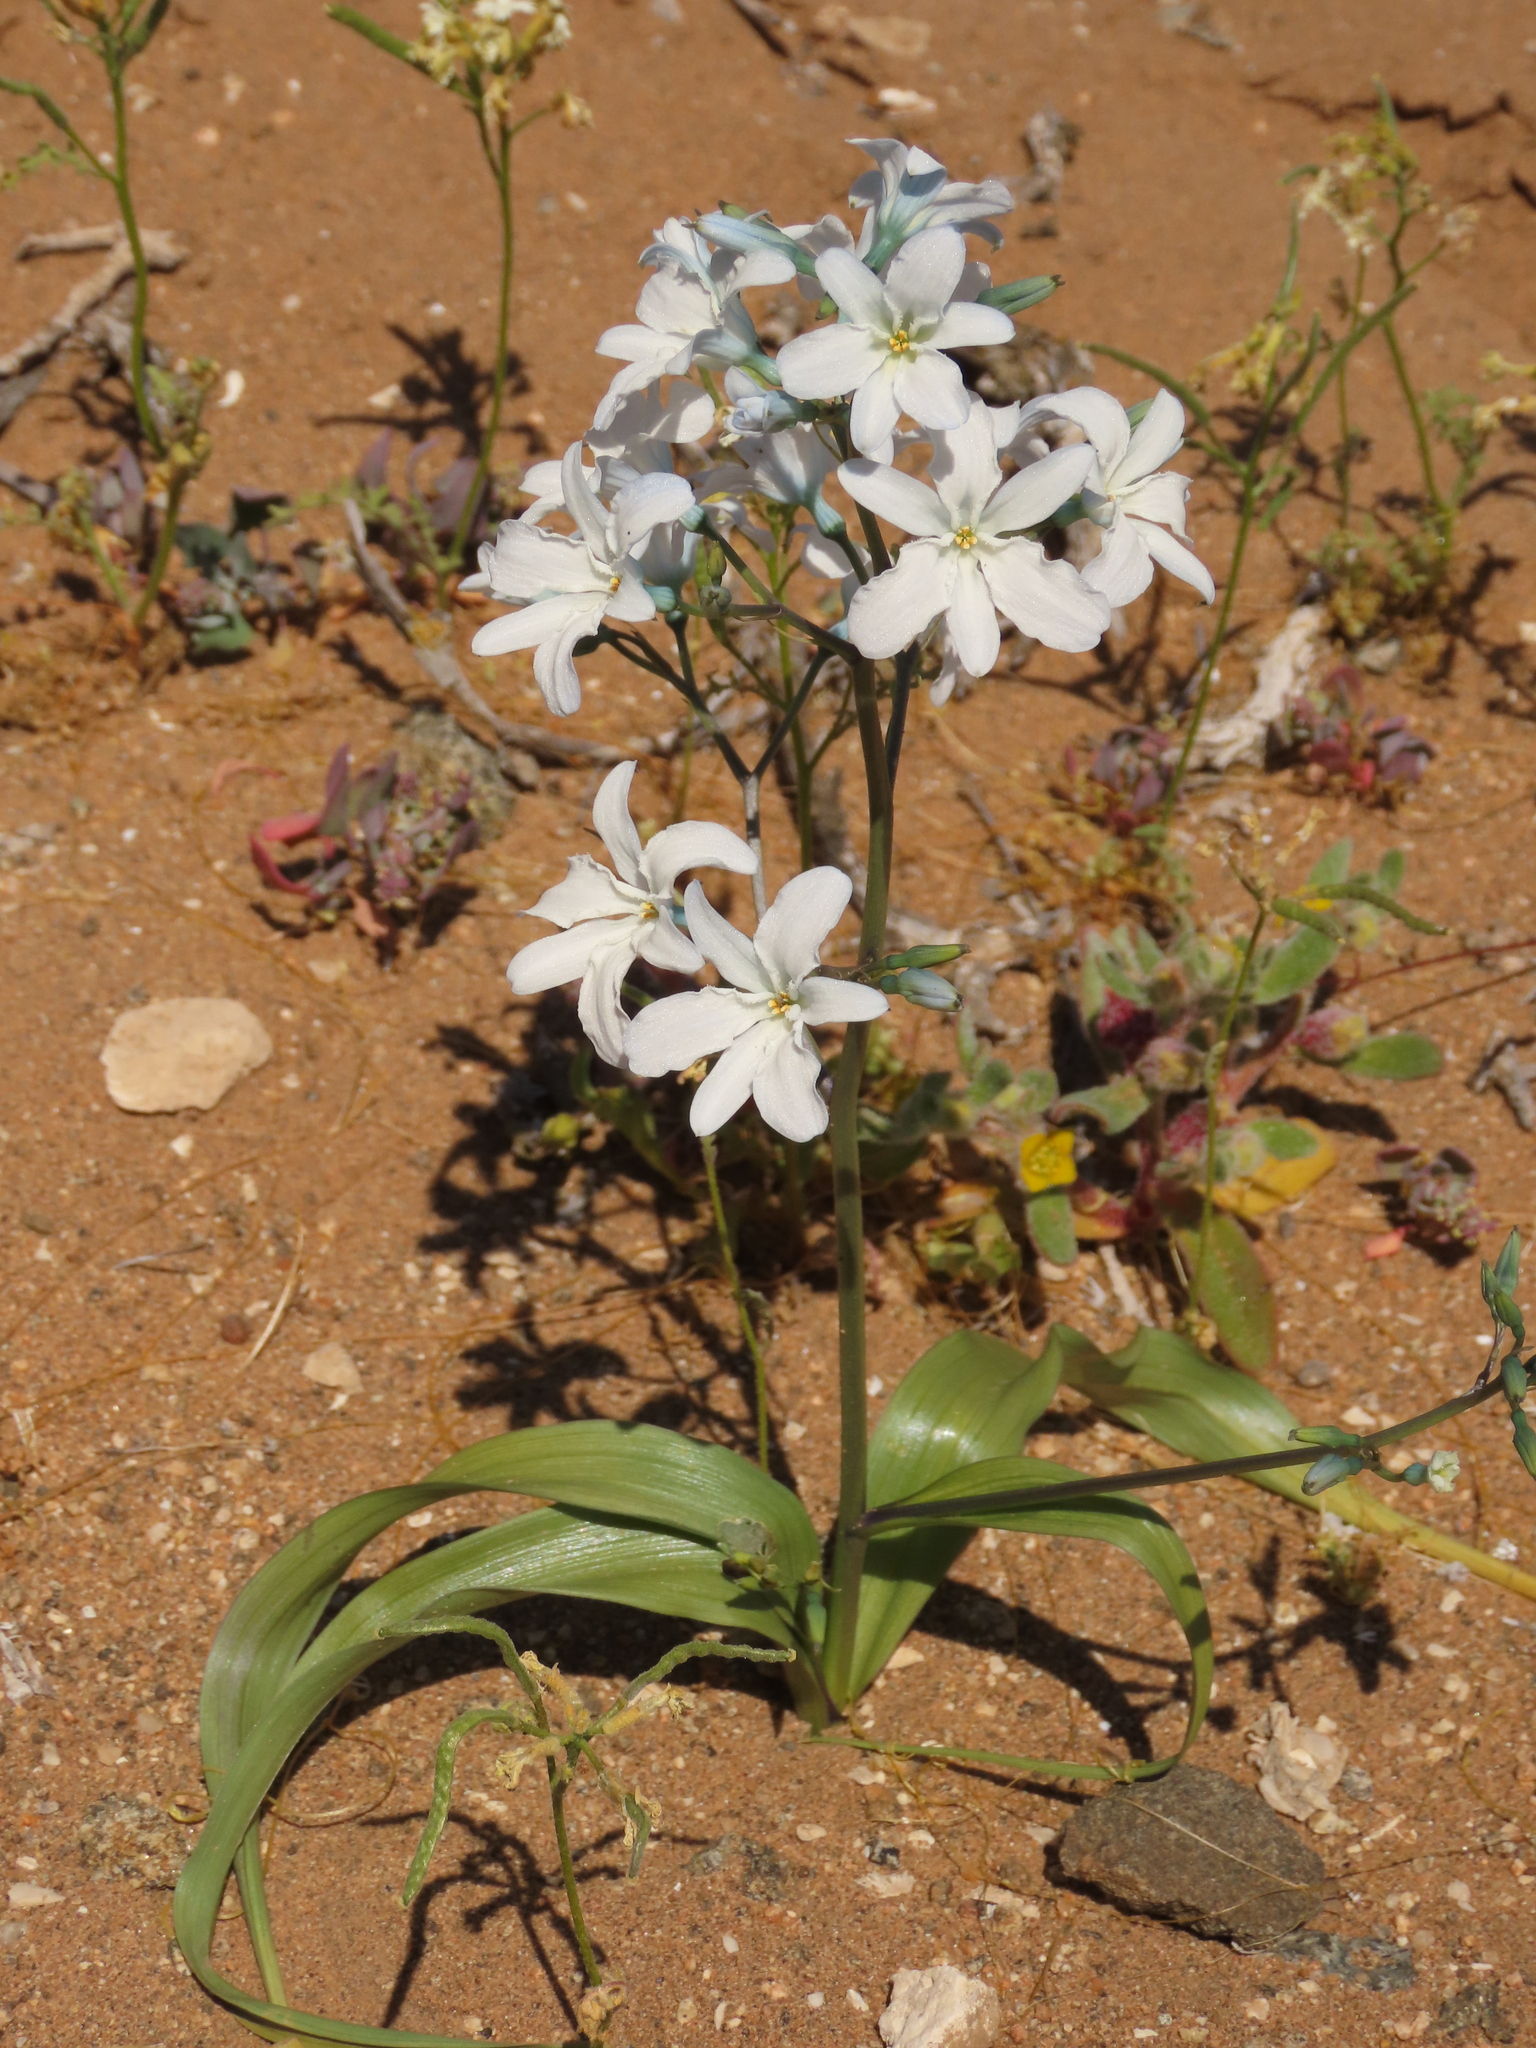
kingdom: Plantae
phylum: Tracheophyta
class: Liliopsida
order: Asparagales
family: Tecophilaeaceae
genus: Zephyra
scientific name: Zephyra elegans
